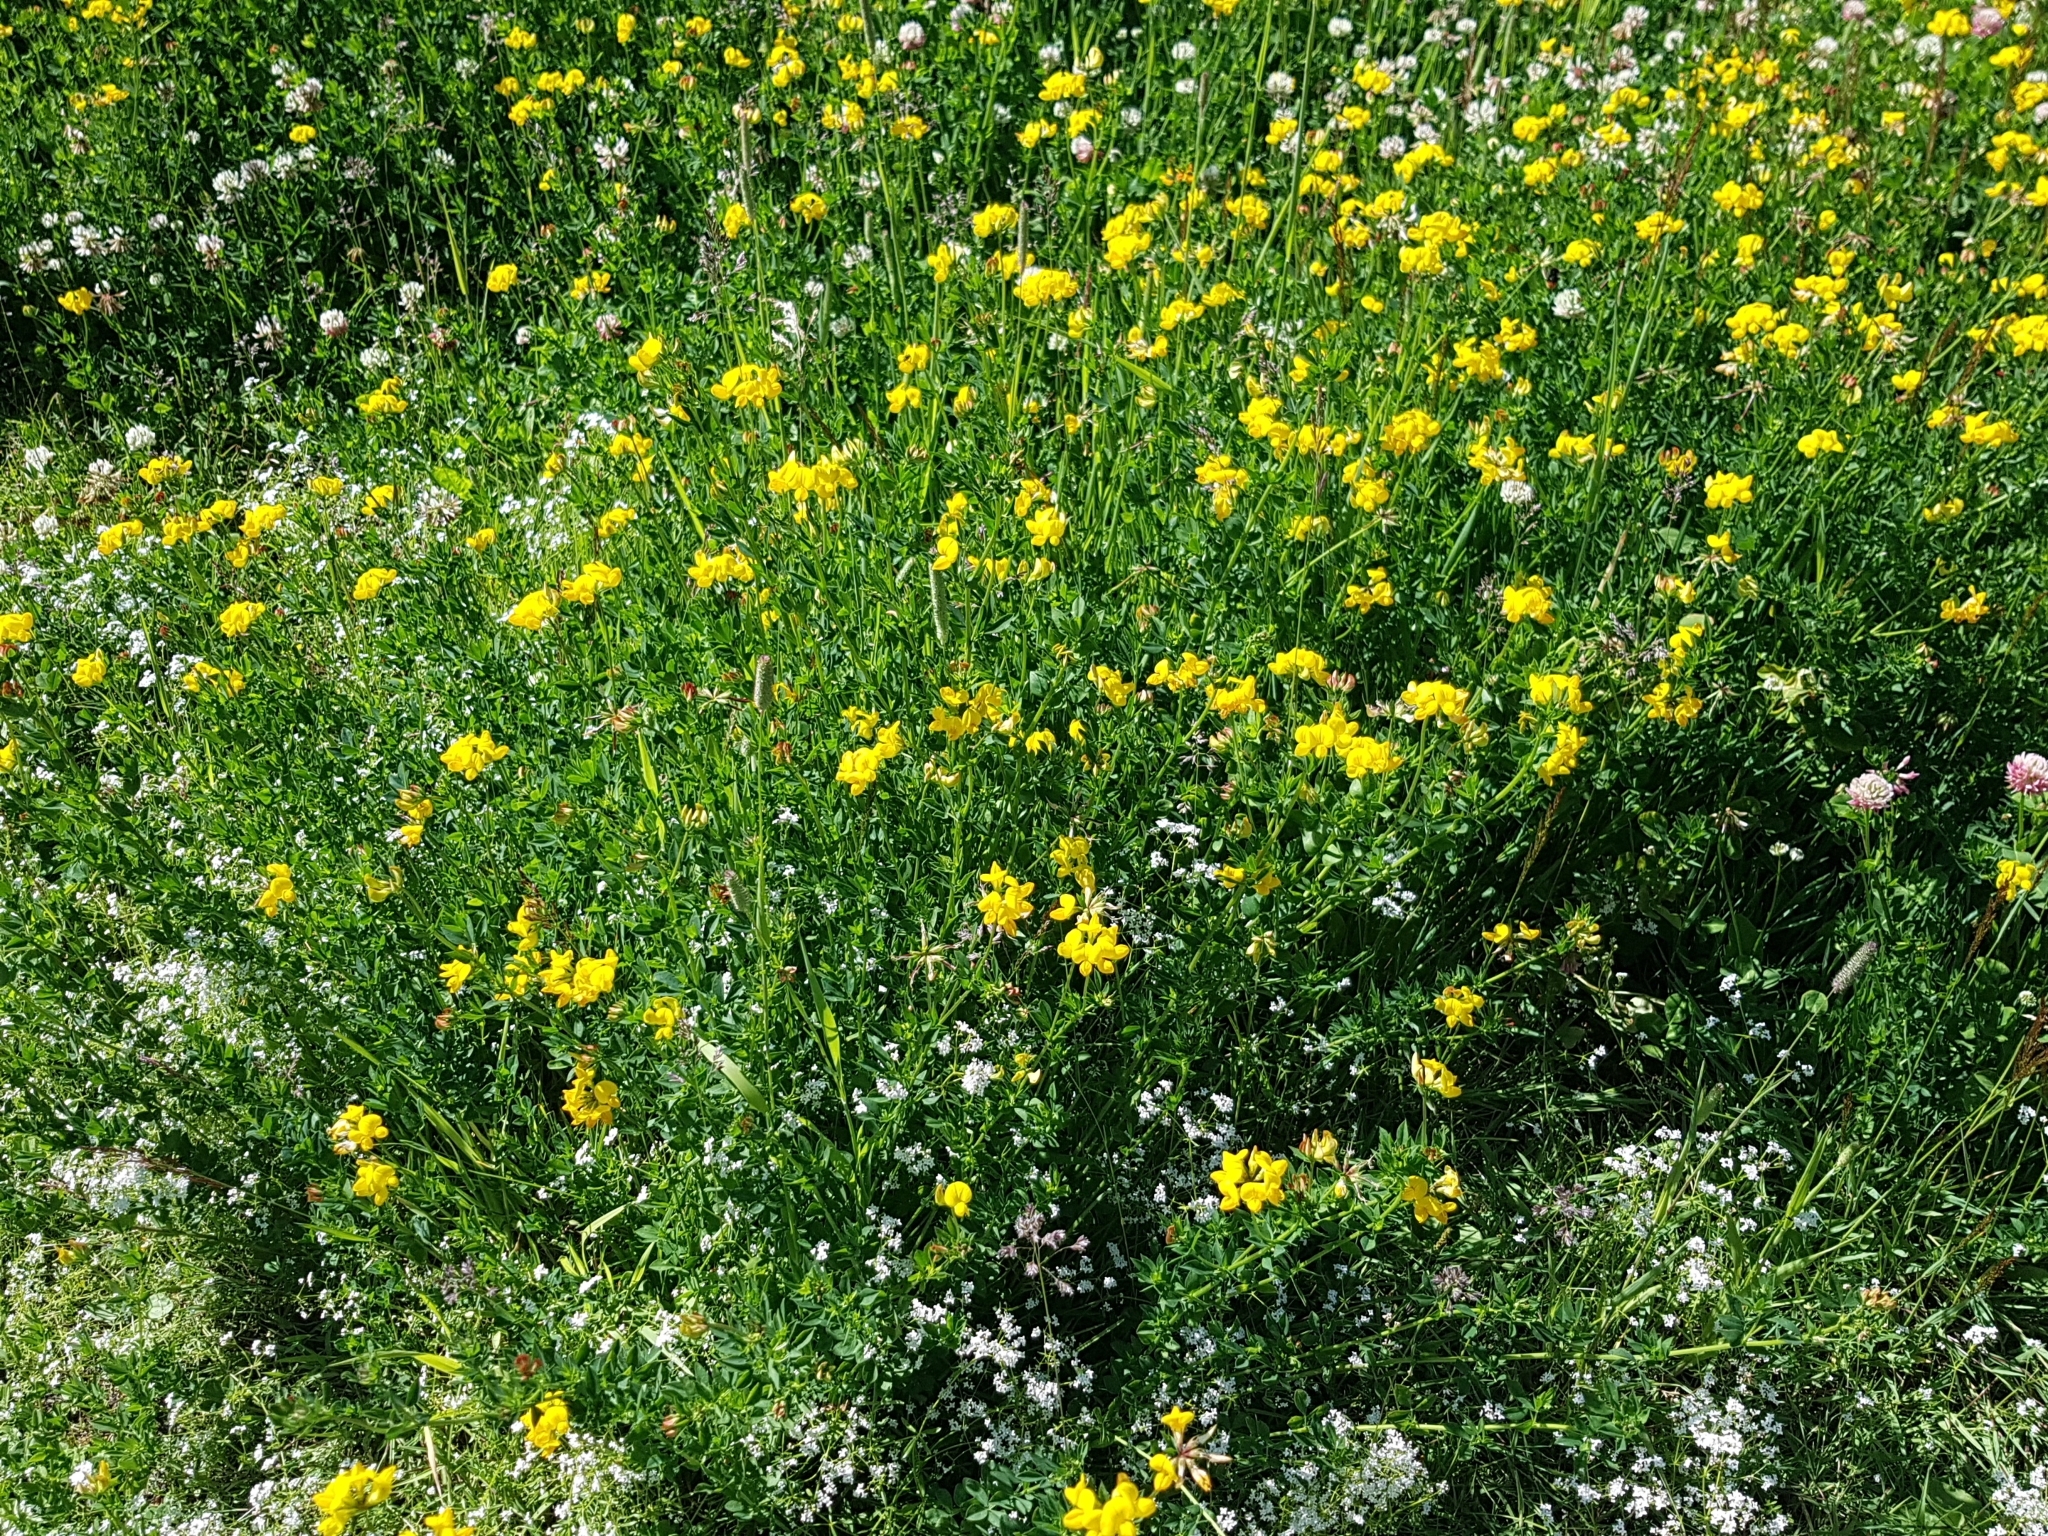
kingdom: Plantae
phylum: Tracheophyta
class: Magnoliopsida
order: Fabales
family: Fabaceae
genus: Lotus
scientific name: Lotus corniculatus
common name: Common bird's-foot-trefoil
